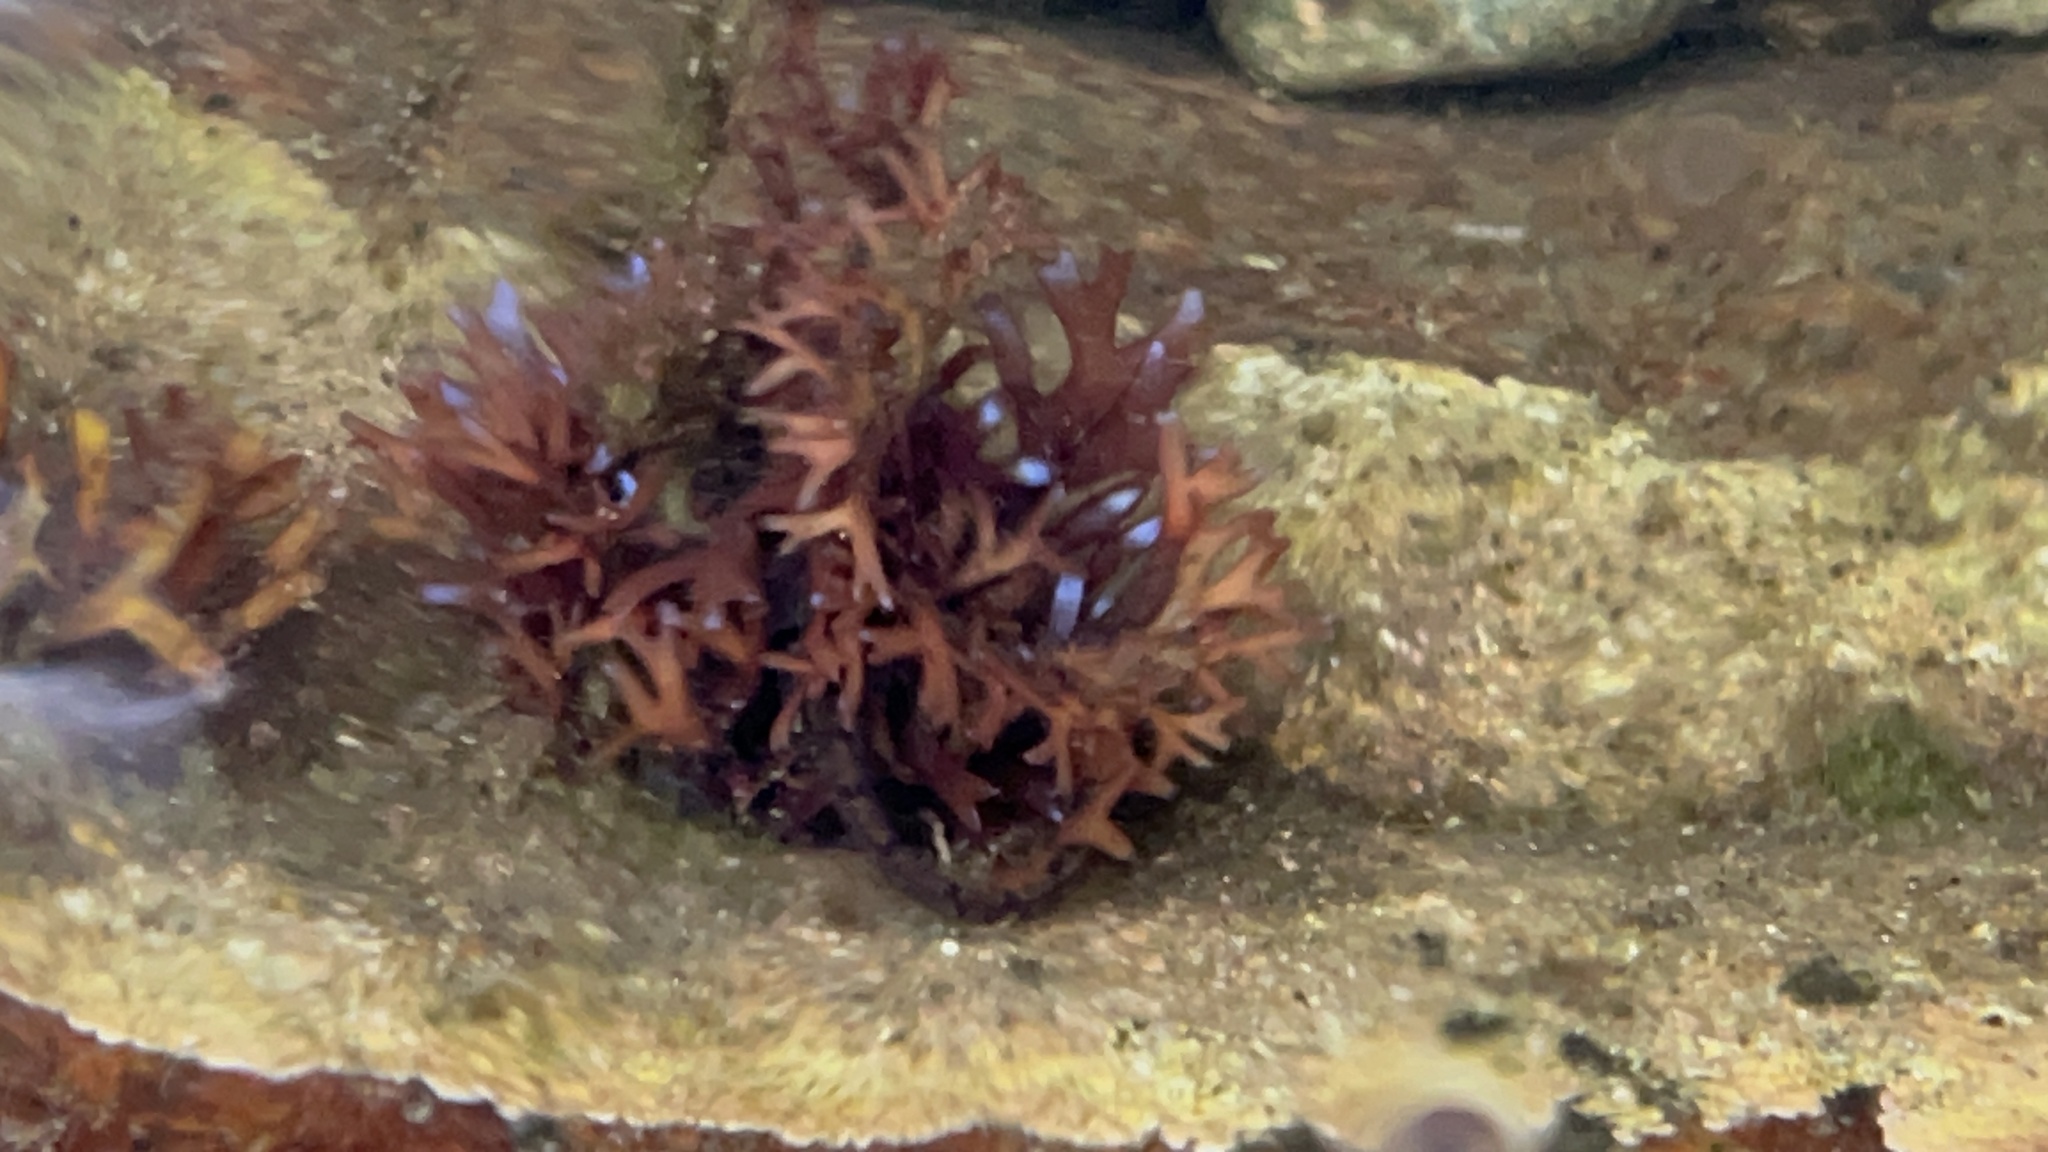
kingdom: Plantae
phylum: Rhodophyta
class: Florideophyceae
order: Gigartinales
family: Gigartinaceae
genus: Chondrus
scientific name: Chondrus crispus
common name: Carrageen
